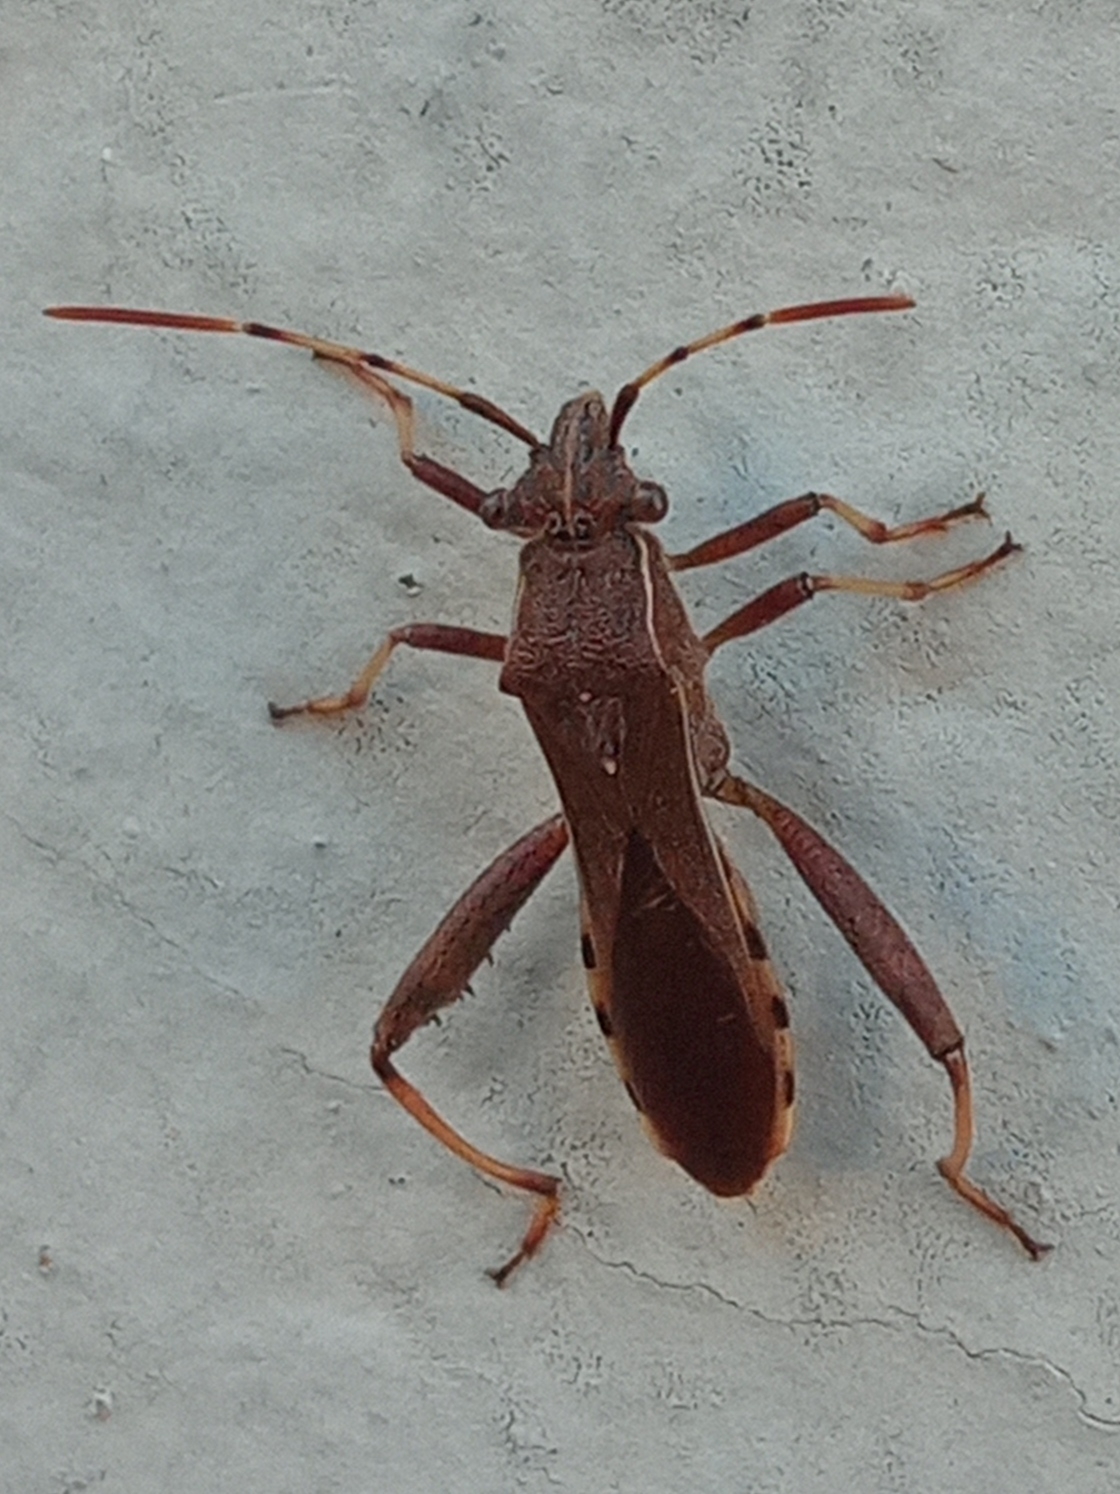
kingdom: Animalia
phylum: Arthropoda
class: Insecta
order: Hemiptera
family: Alydidae
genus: Camptopus
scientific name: Camptopus lateralis
